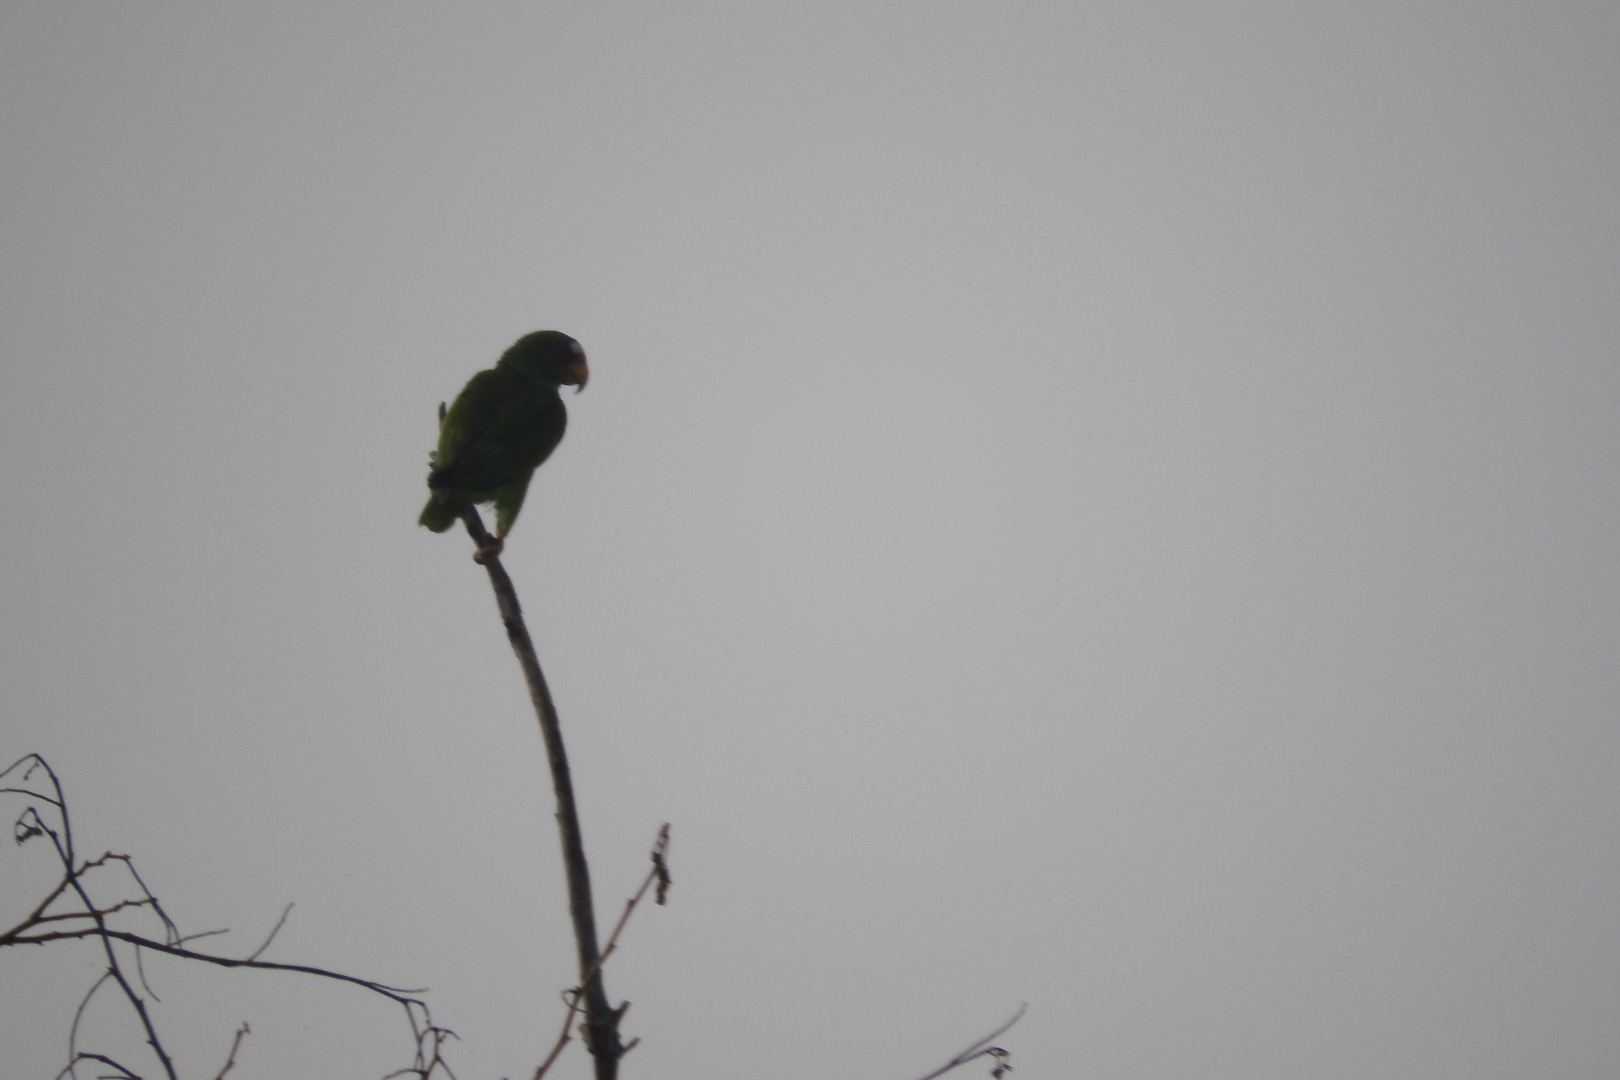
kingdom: Animalia
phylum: Chordata
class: Aves
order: Psittaciformes
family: Psittacidae
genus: Amazona
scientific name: Amazona albifrons
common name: White-fronted amazon
